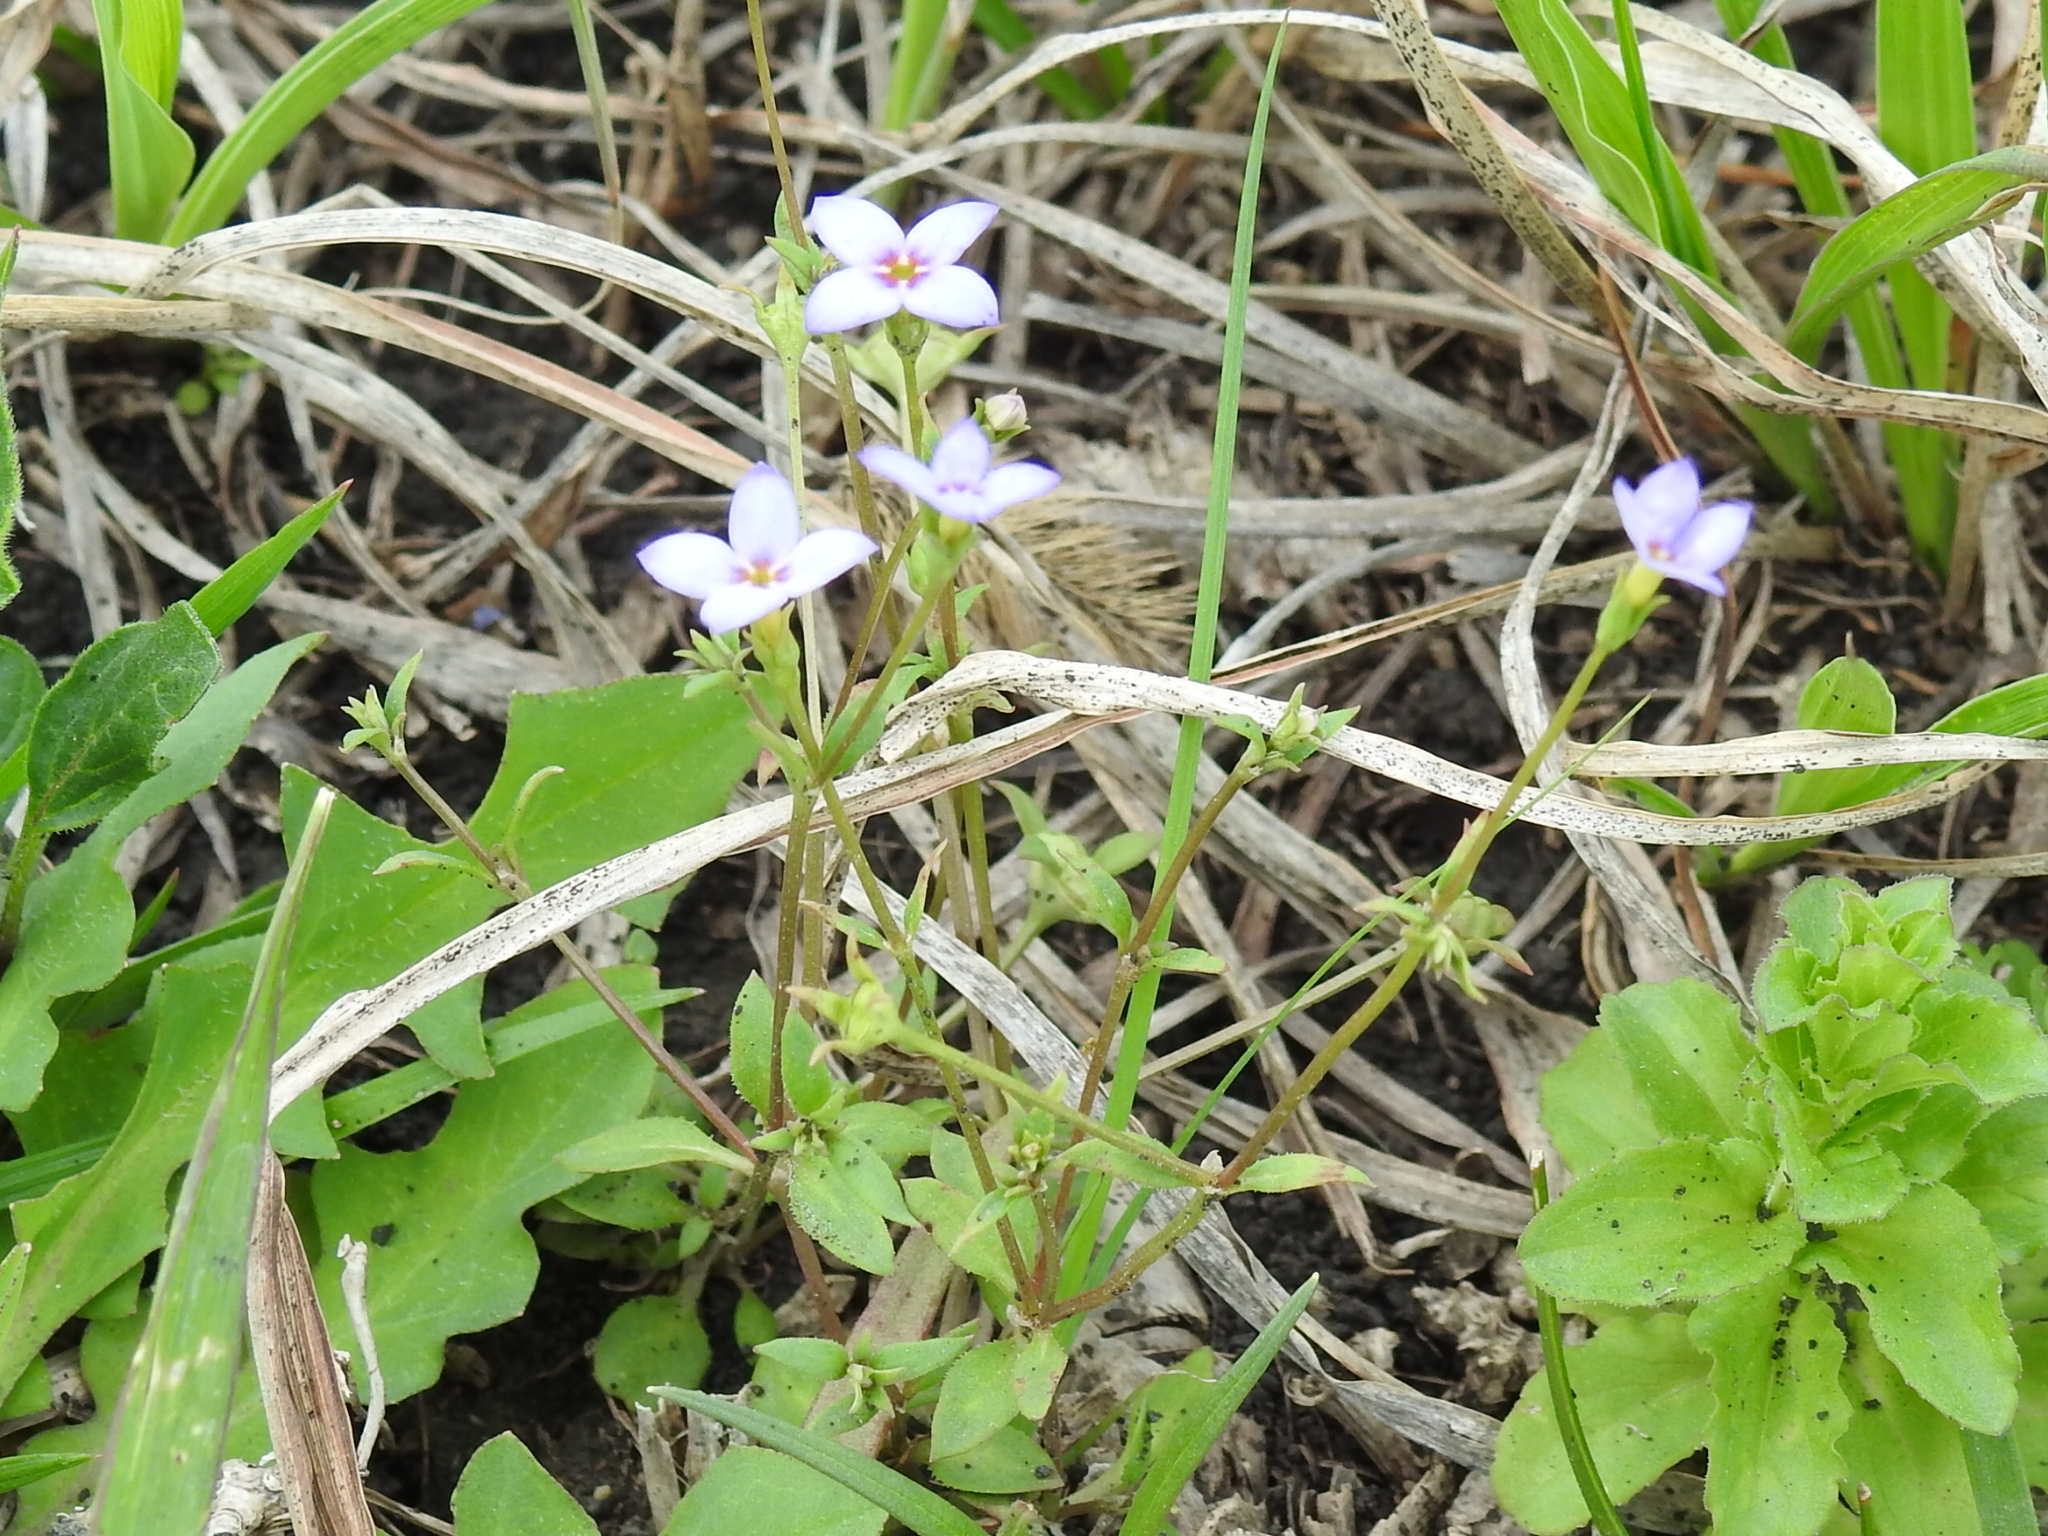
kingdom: Plantae
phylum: Tracheophyta
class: Magnoliopsida
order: Gentianales
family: Rubiaceae
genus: Houstonia
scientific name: Houstonia pusilla
